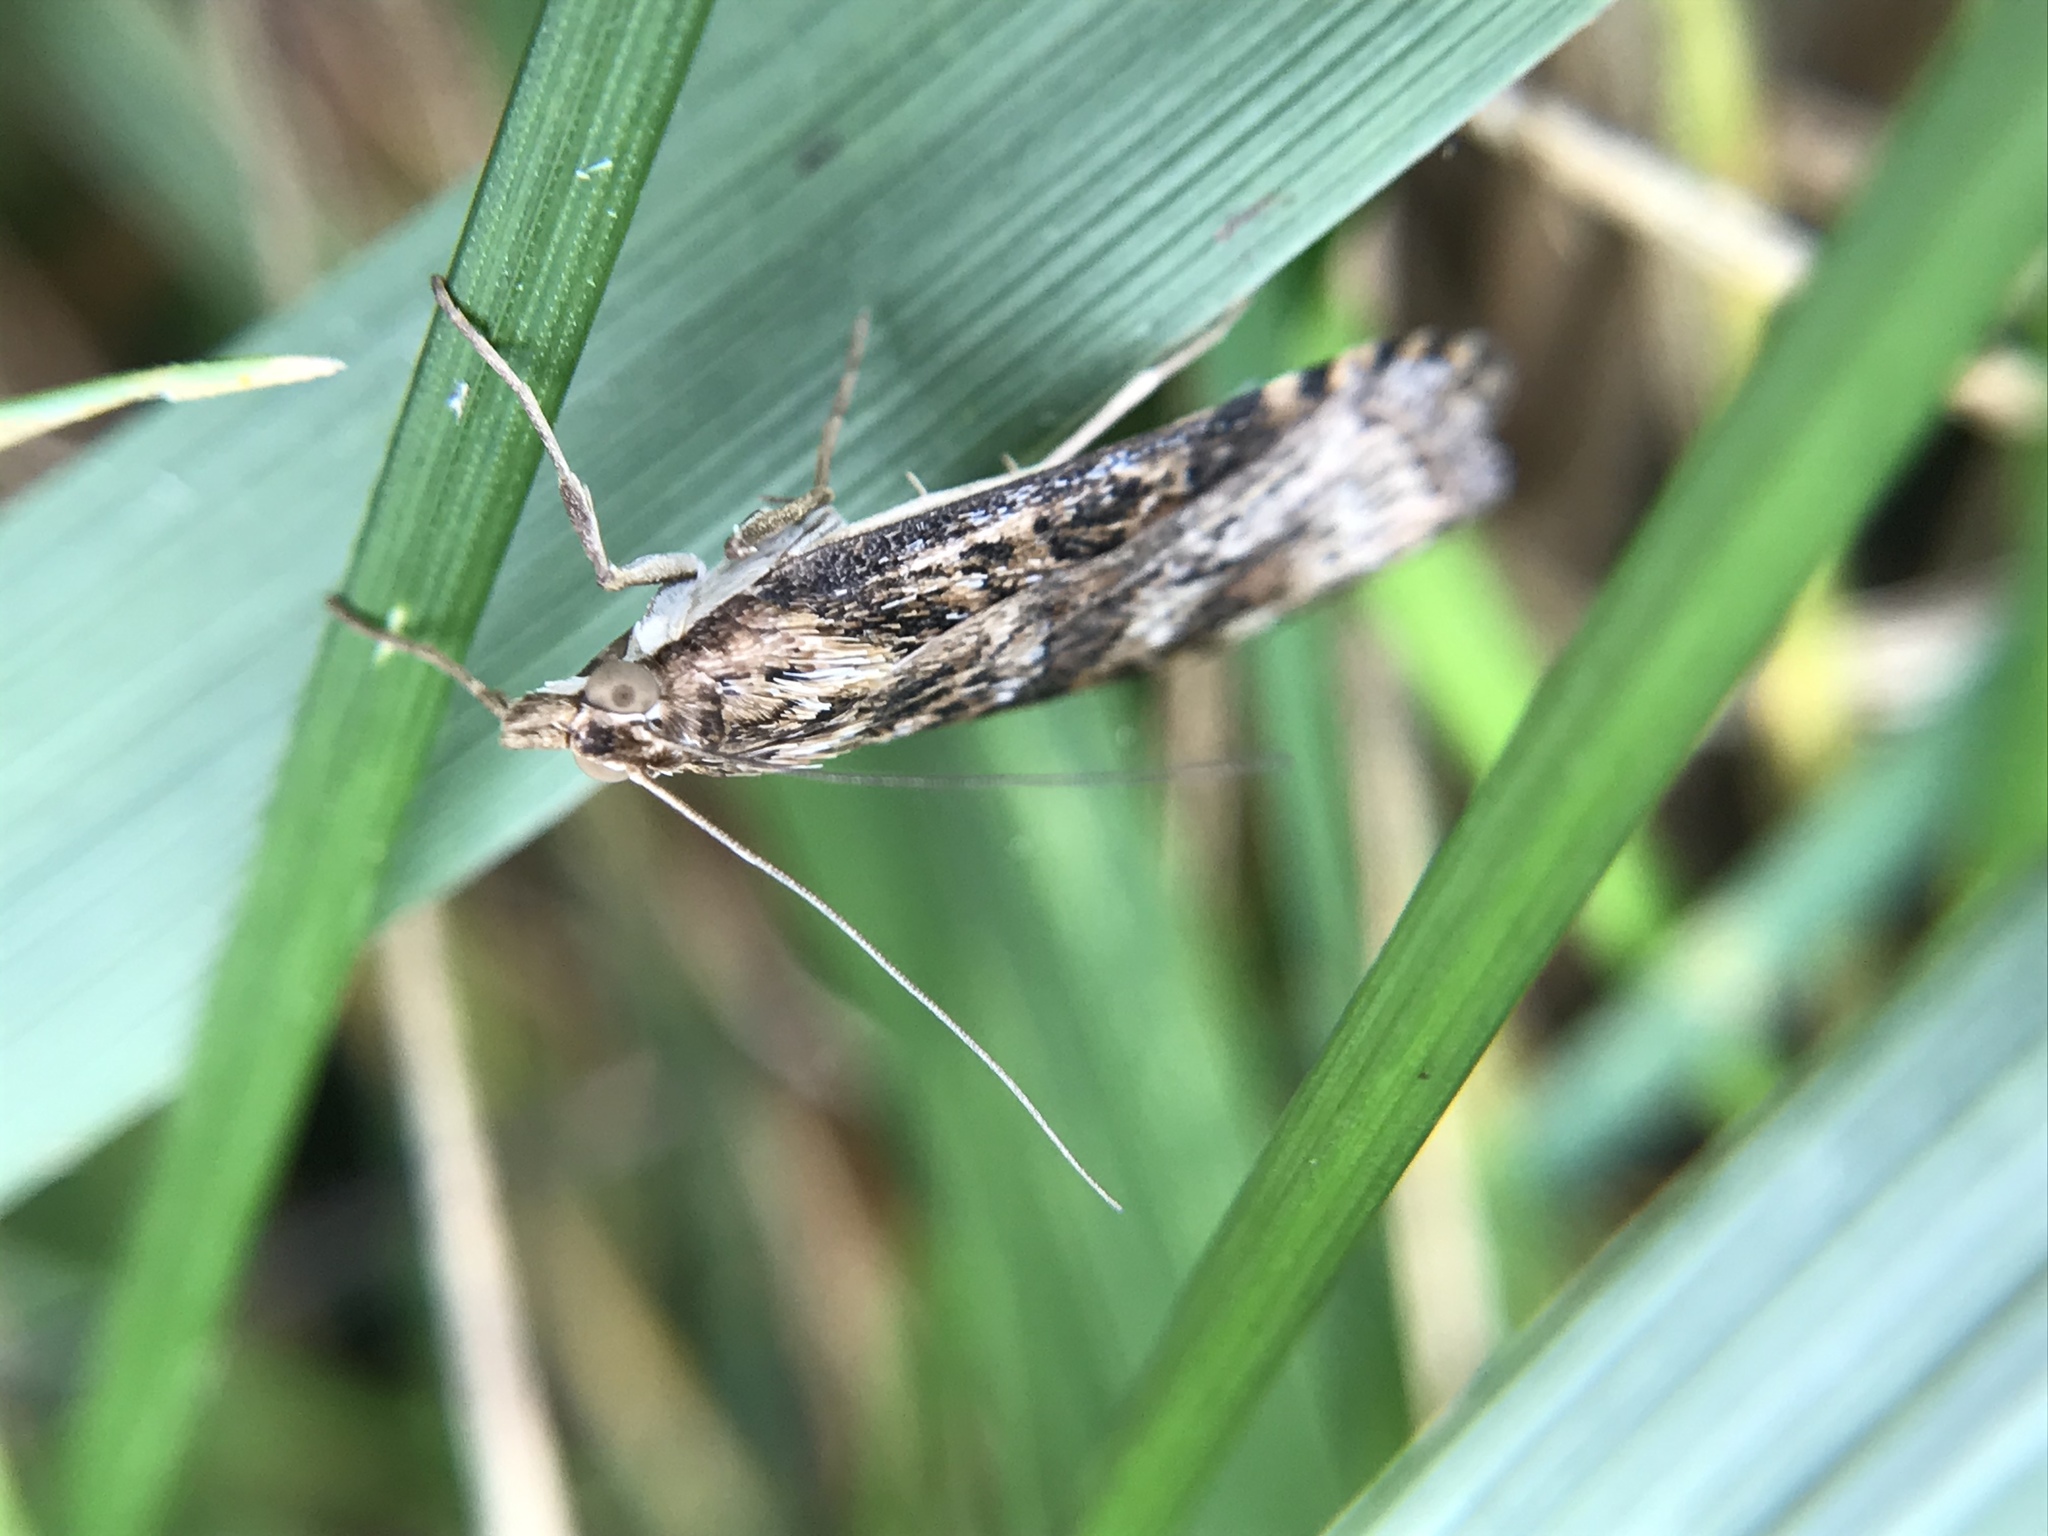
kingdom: Animalia
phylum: Arthropoda
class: Insecta
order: Lepidoptera
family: Crambidae
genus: Nomophila
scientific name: Nomophila nearctica
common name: American rush veneer
